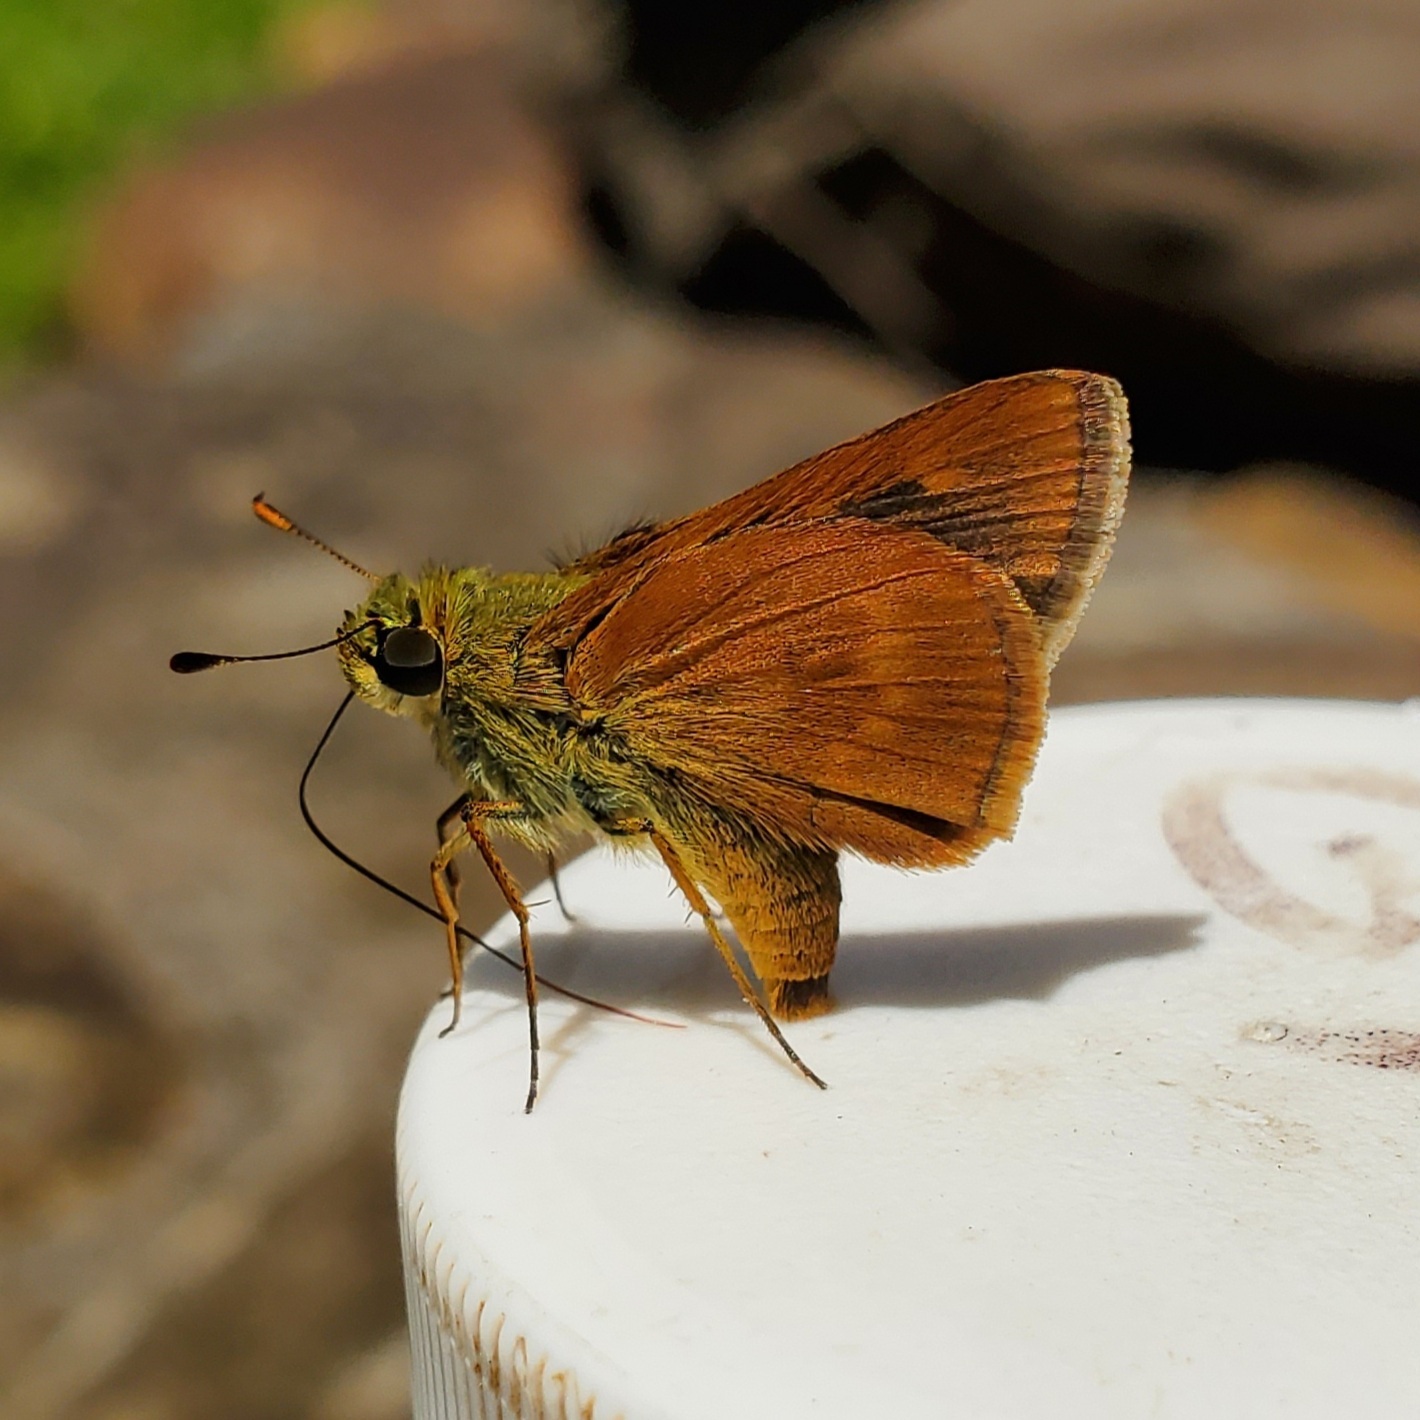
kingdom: Animalia
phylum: Arthropoda
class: Insecta
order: Lepidoptera
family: Hesperiidae
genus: Polites
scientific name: Polites otho
